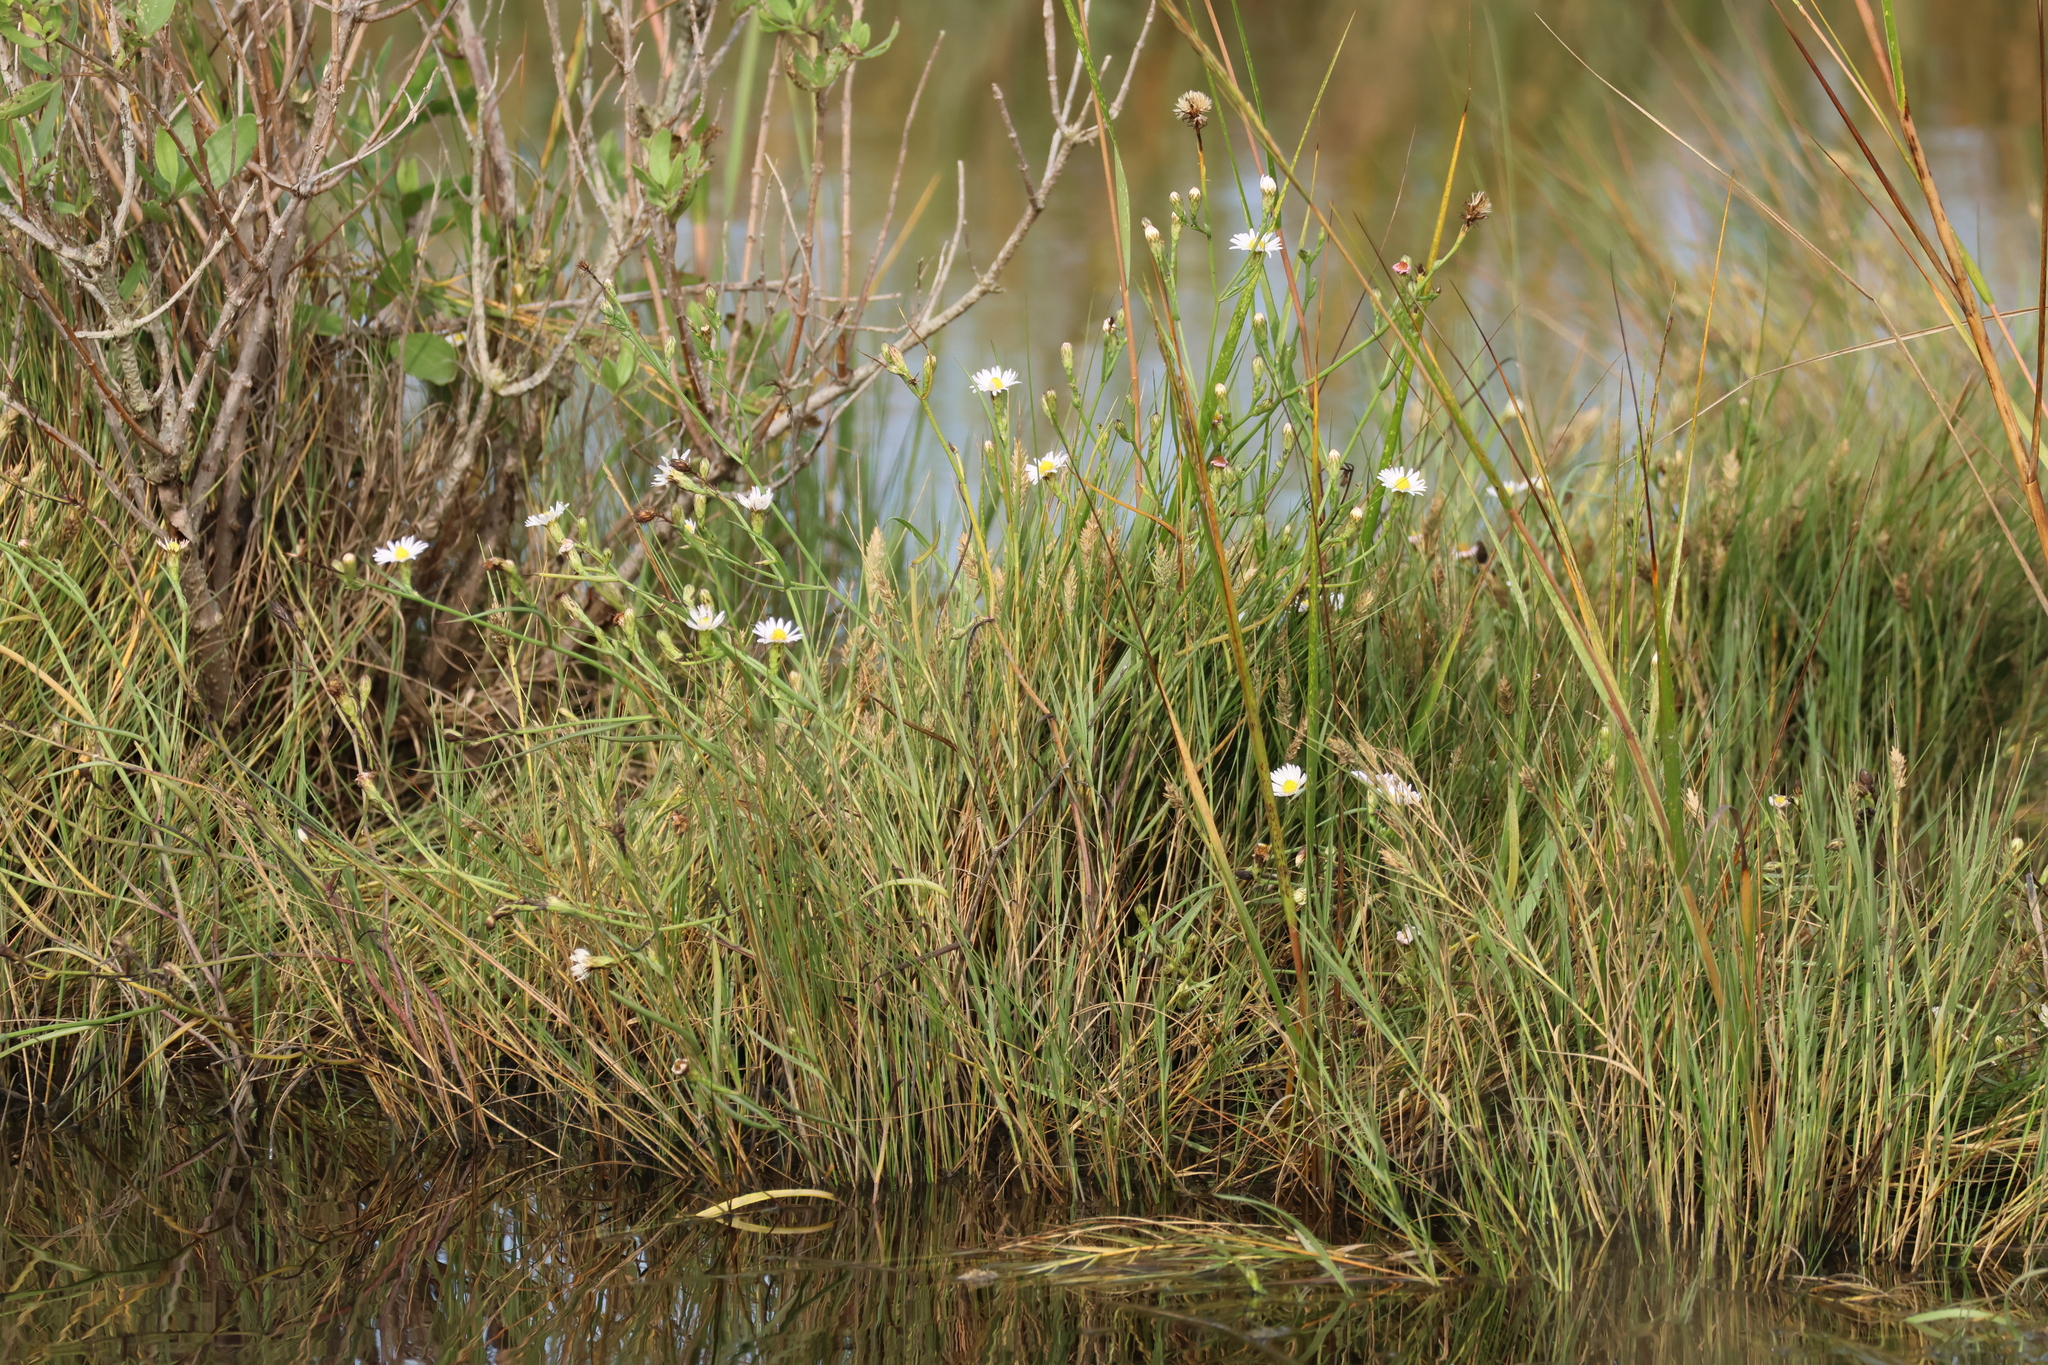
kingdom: Plantae
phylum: Tracheophyta
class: Magnoliopsida
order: Asterales
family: Asteraceae
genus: Symphyotrichum
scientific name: Symphyotrichum tenuifolium
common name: Perennial salt-marsh aster
